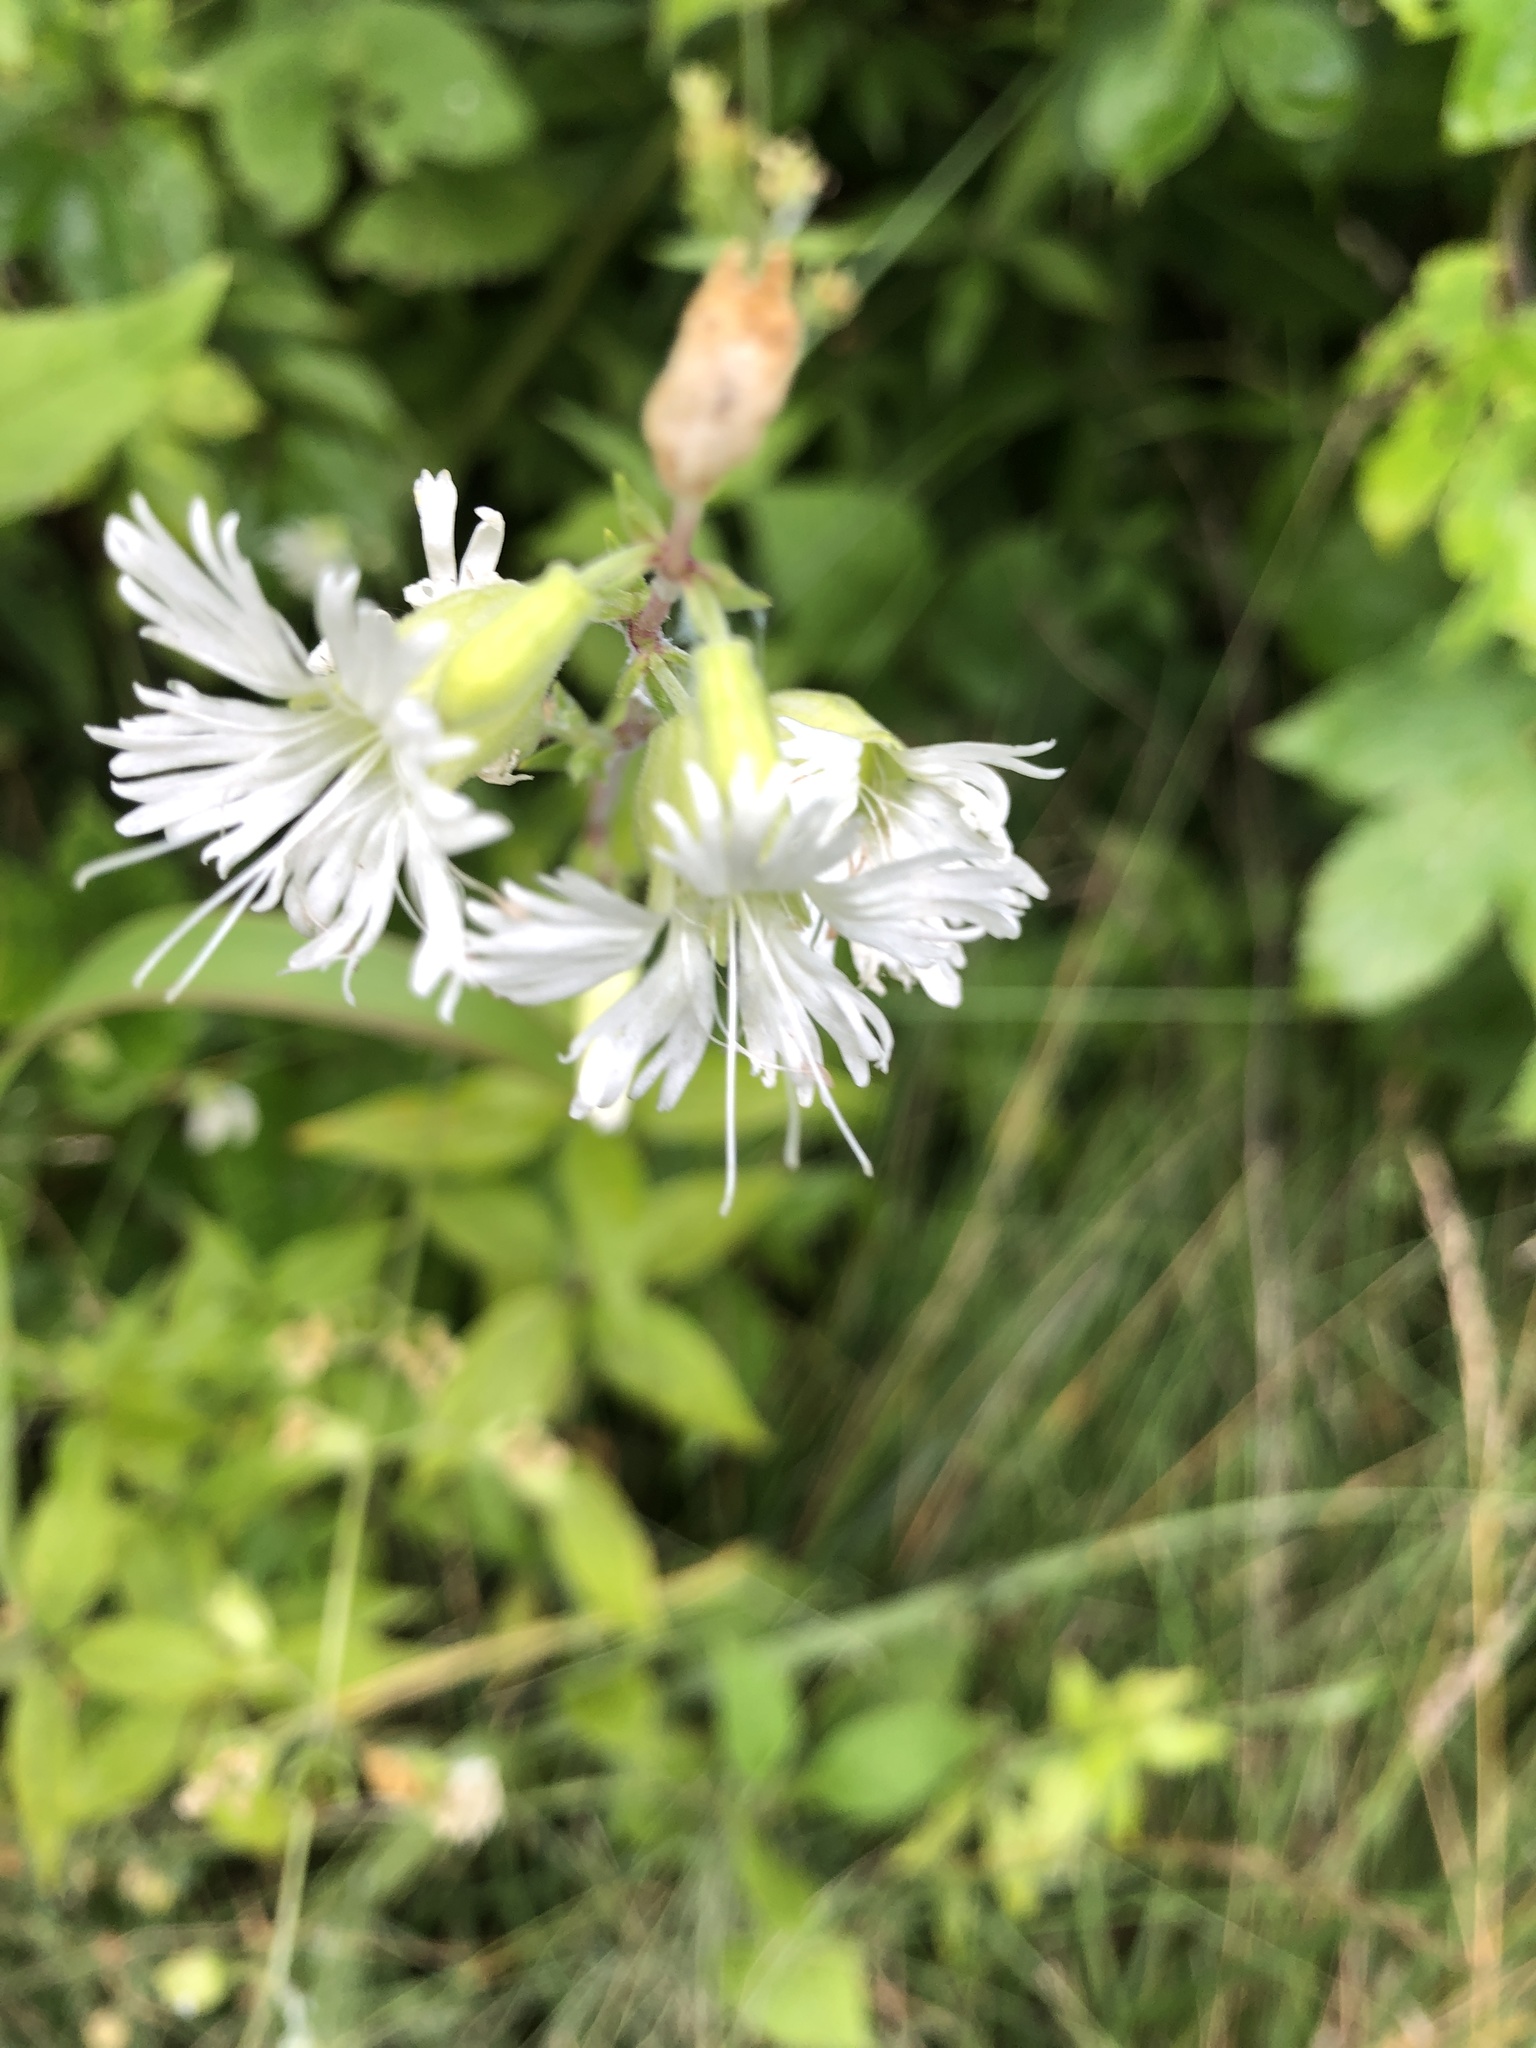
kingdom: Plantae
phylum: Tracheophyta
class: Magnoliopsida
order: Caryophyllales
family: Caryophyllaceae
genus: Silene
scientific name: Silene stellata
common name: Starry campion
